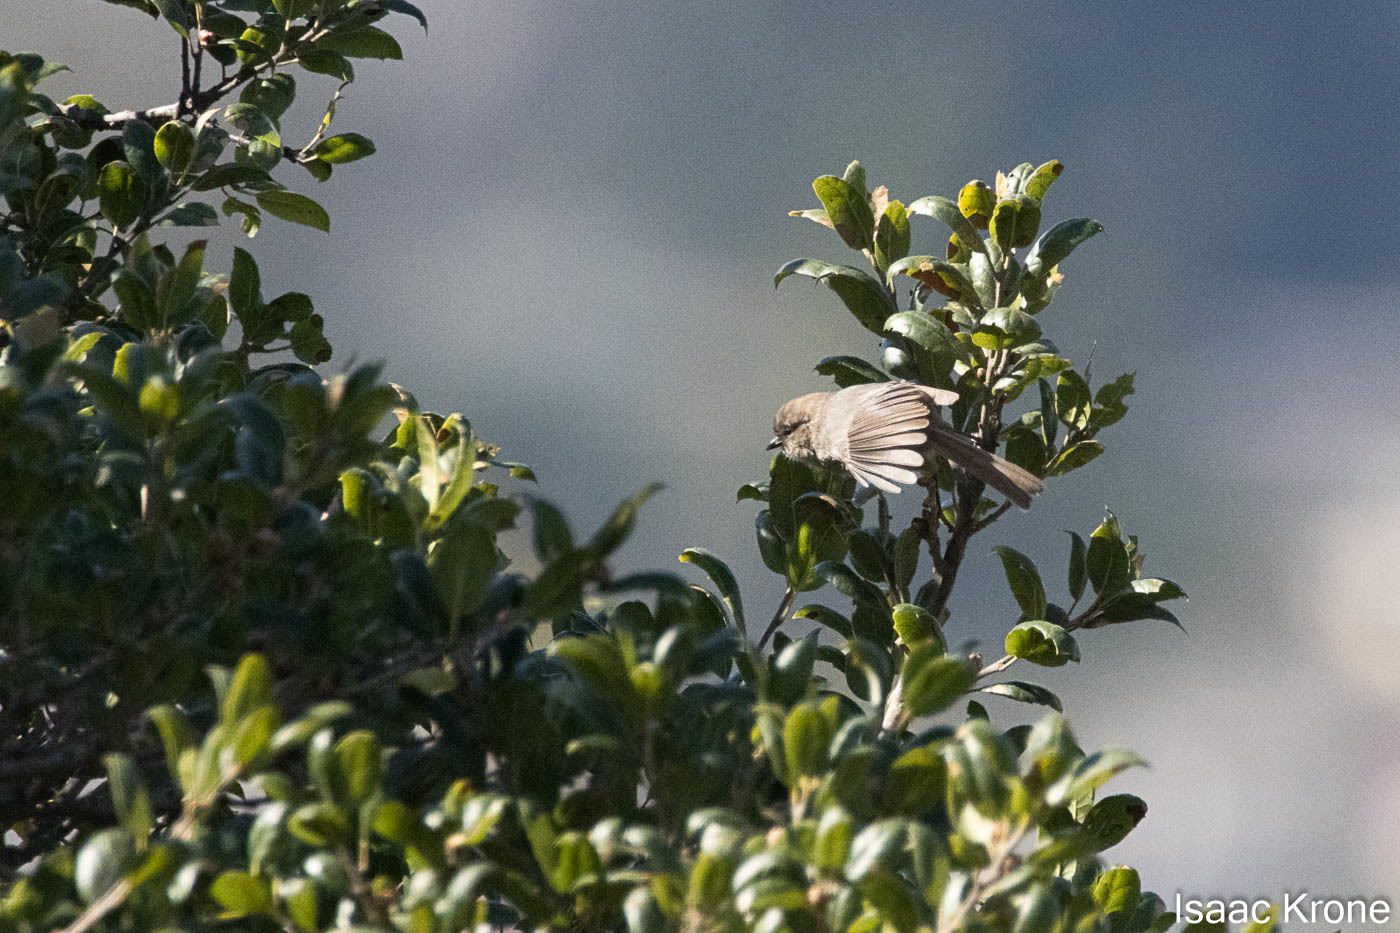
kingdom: Animalia
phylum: Chordata
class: Aves
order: Passeriformes
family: Aegithalidae
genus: Psaltriparus
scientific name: Psaltriparus minimus
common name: American bushtit
